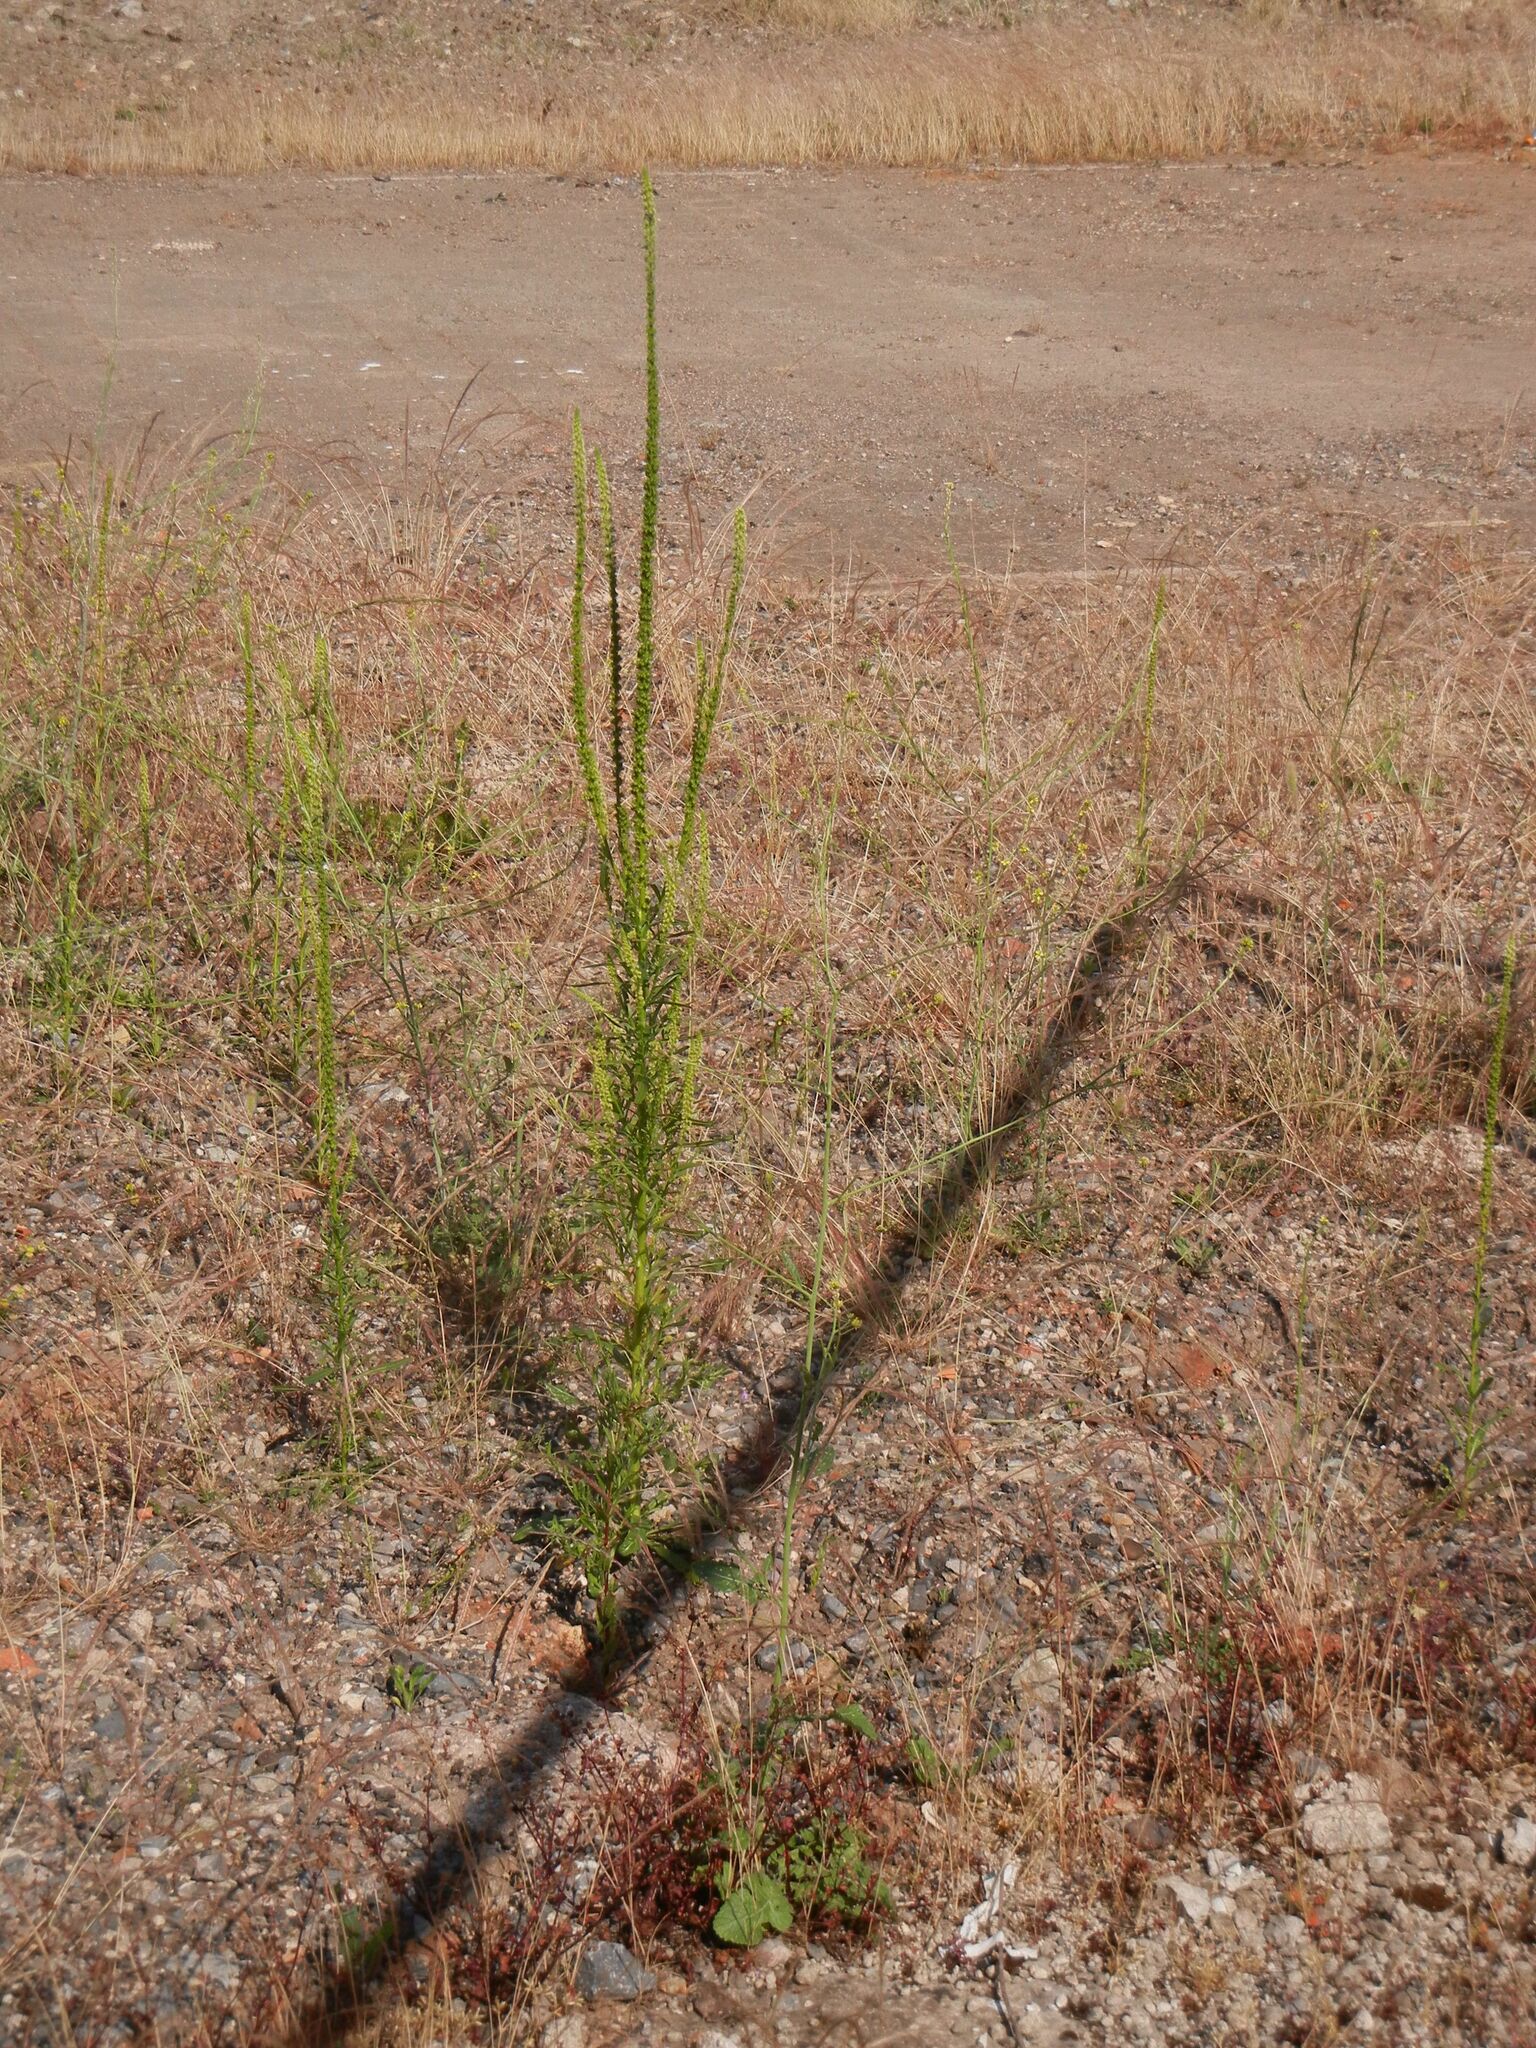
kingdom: Plantae
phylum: Tracheophyta
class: Magnoliopsida
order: Brassicales
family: Resedaceae
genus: Reseda
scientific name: Reseda luteola
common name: Weld
